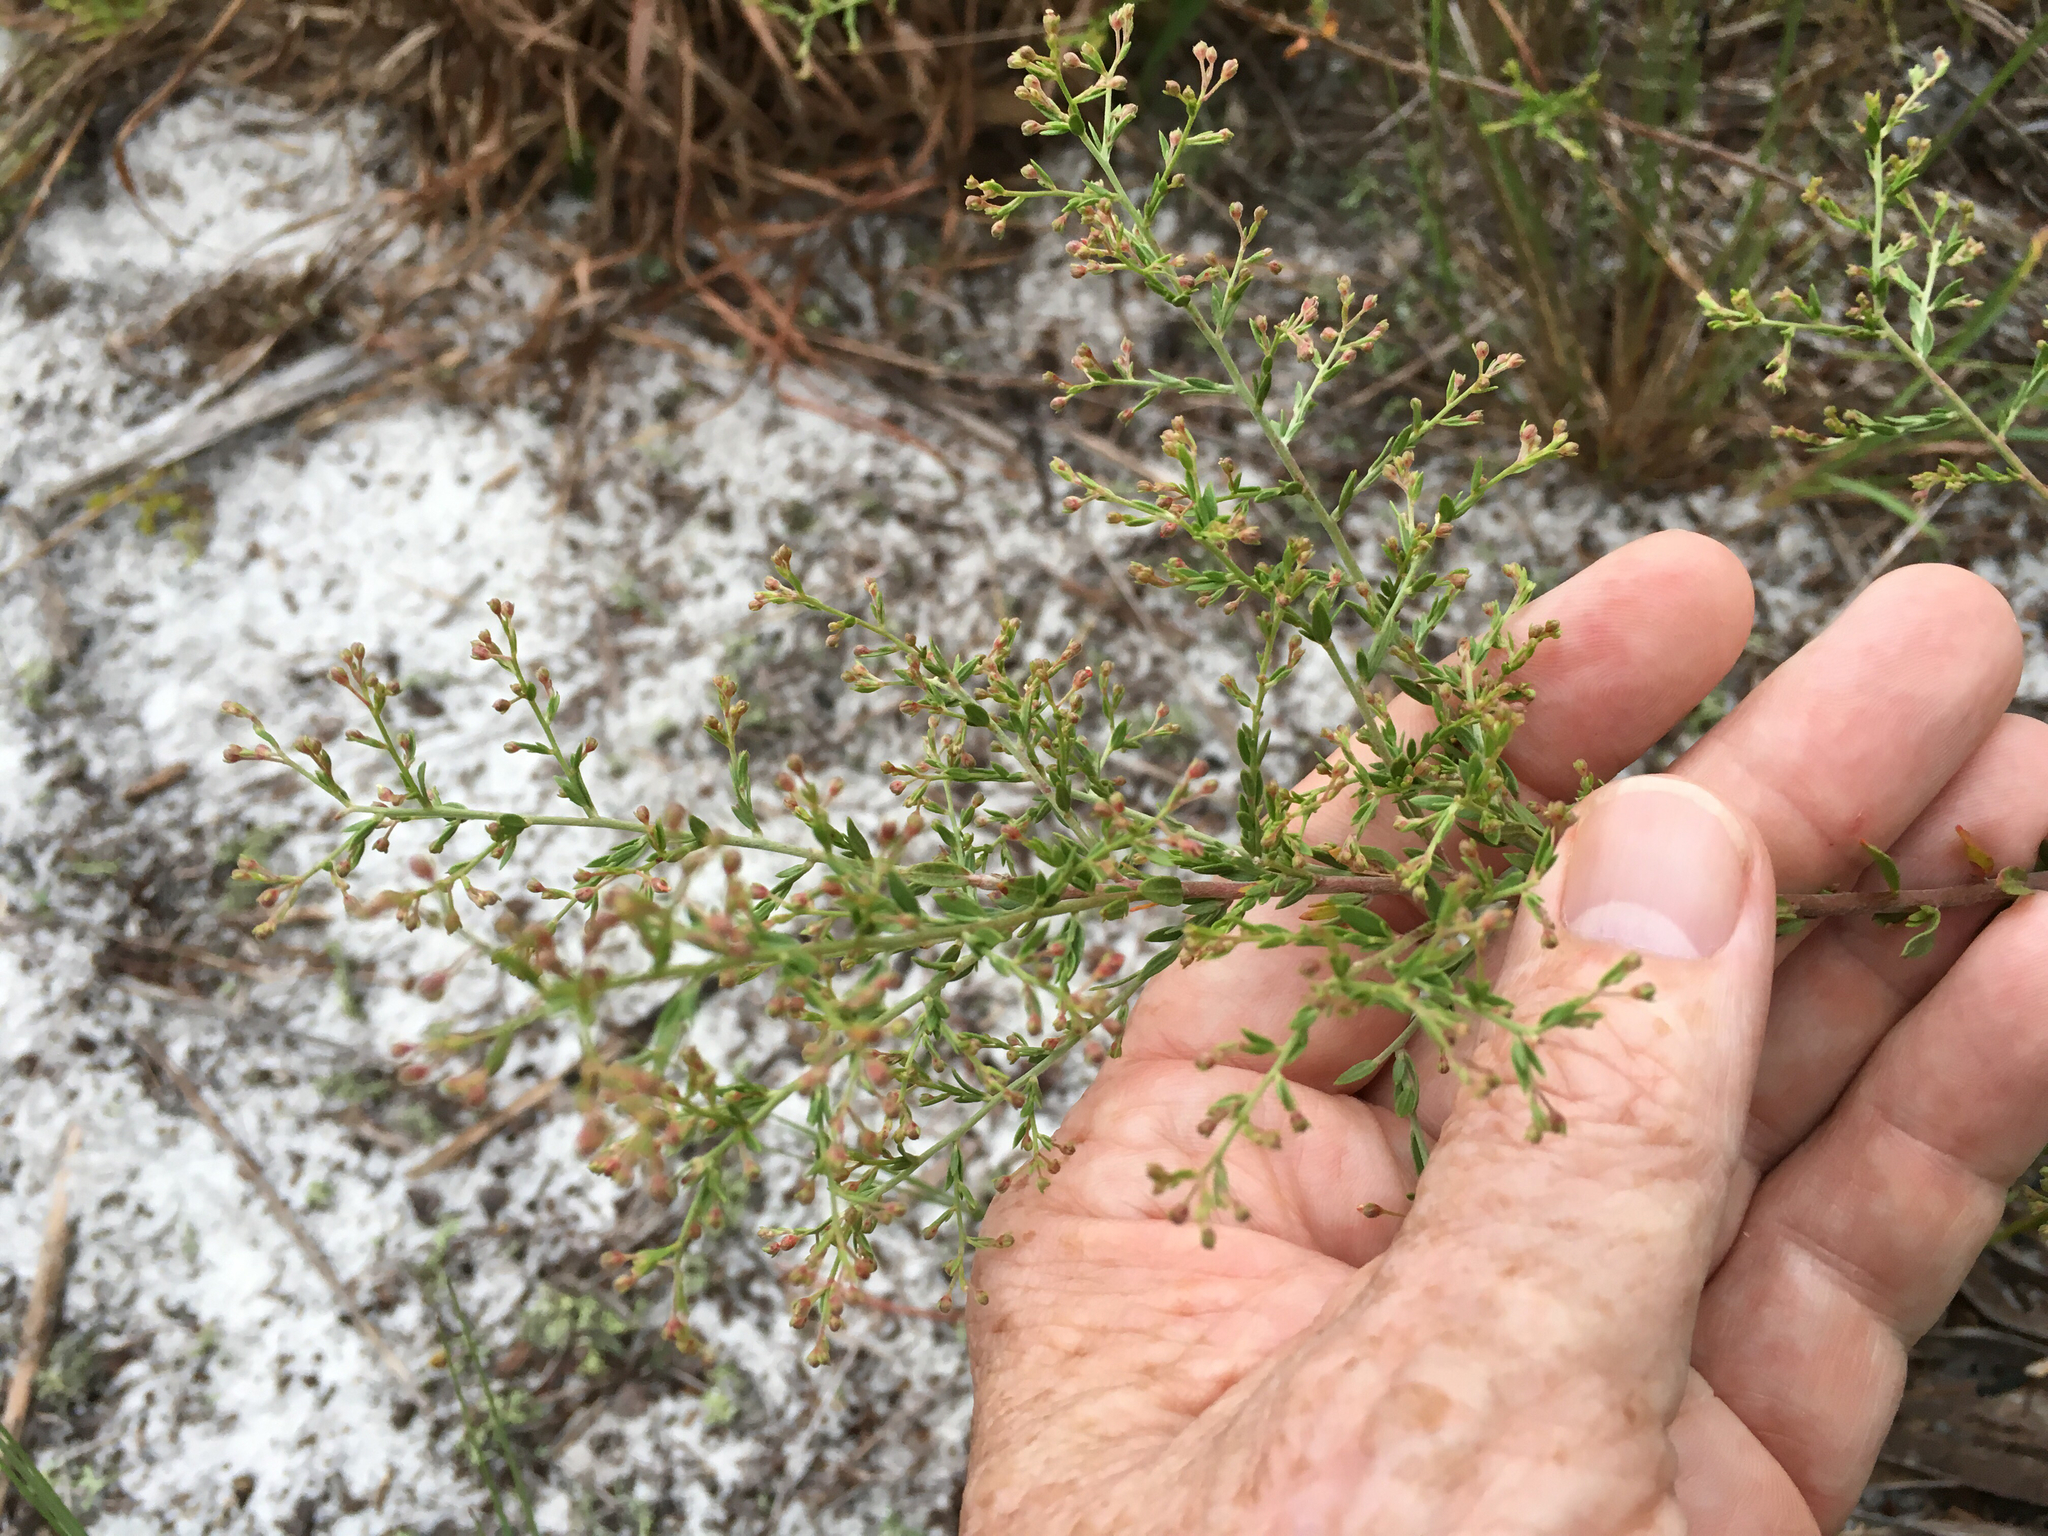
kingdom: Plantae
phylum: Tracheophyta
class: Magnoliopsida
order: Malvales
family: Cistaceae
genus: Lechea
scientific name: Lechea cernua
